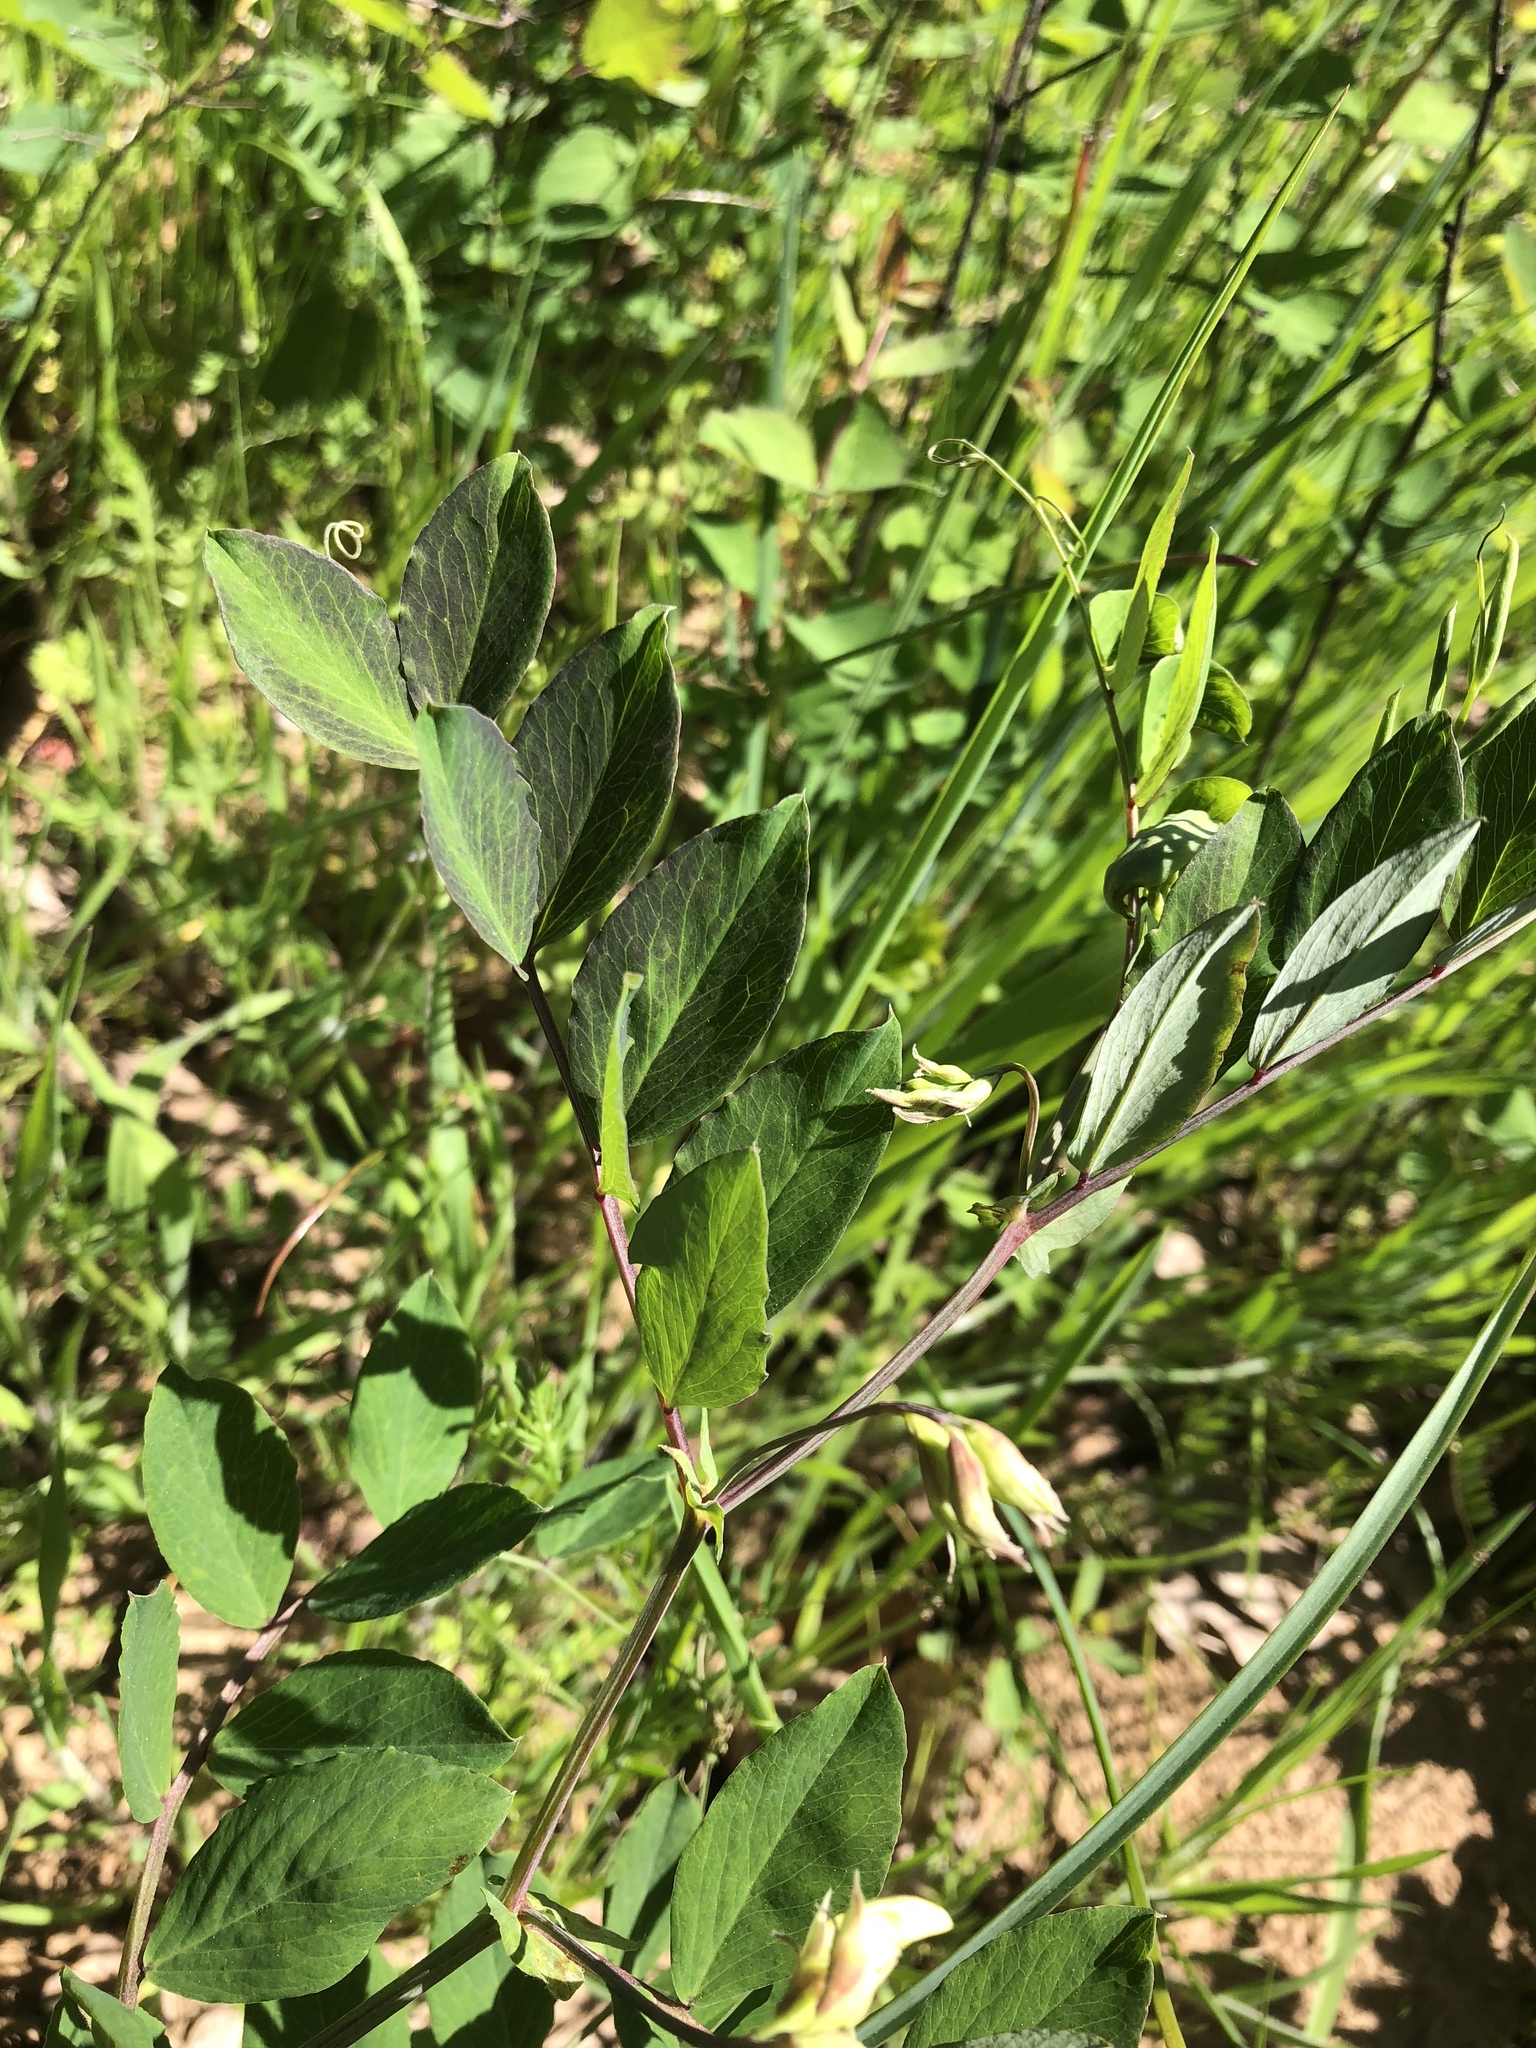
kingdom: Plantae
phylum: Tracheophyta
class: Magnoliopsida
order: Fabales
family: Fabaceae
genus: Lathyrus
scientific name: Lathyrus holochlorus
